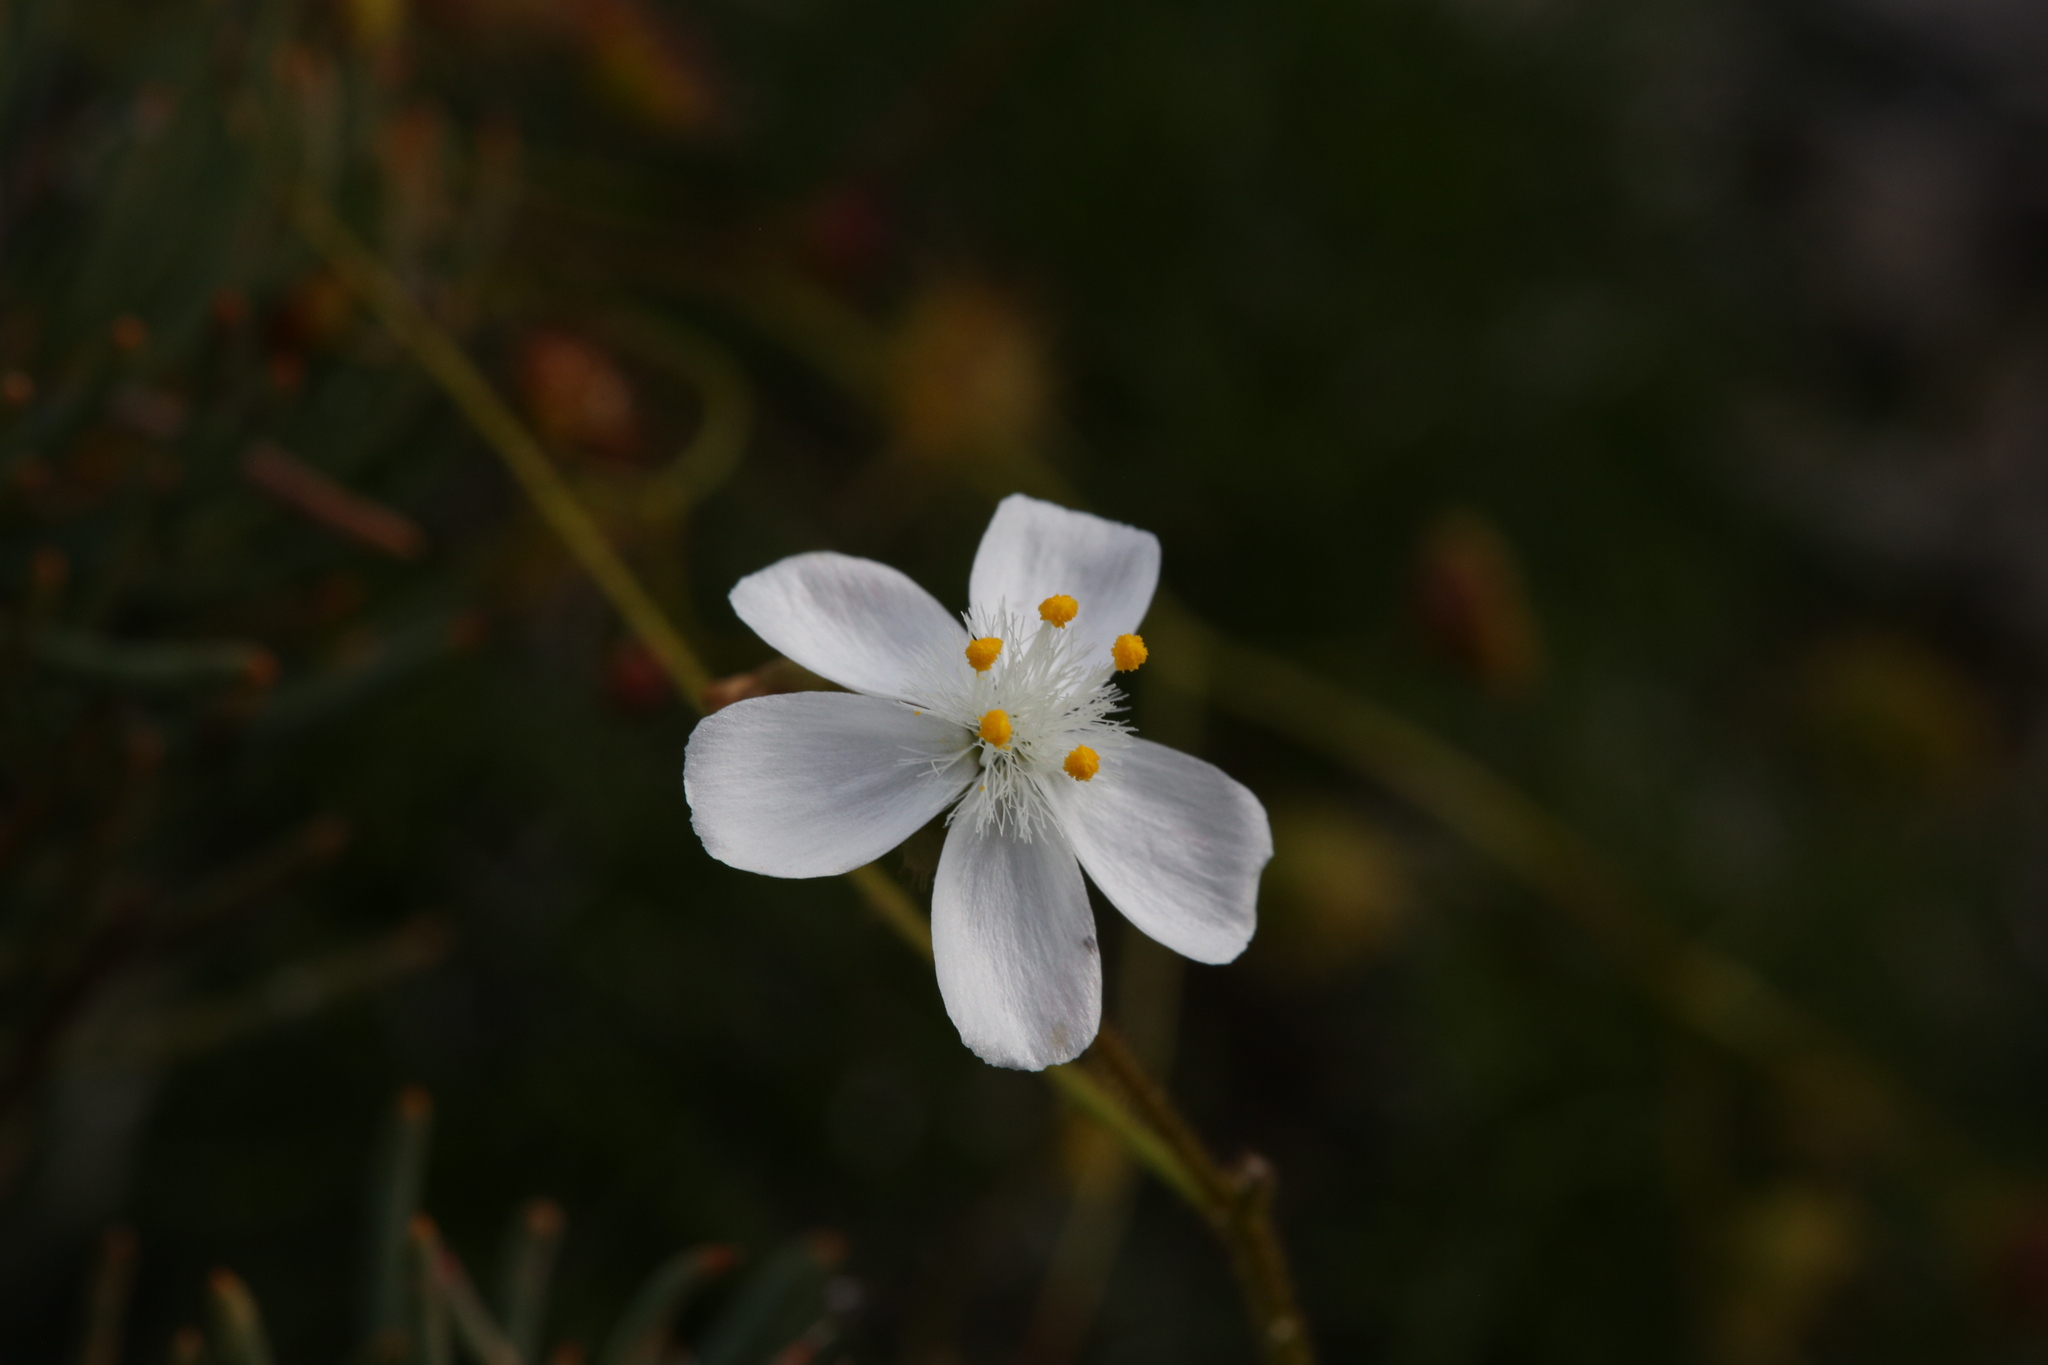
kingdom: Plantae
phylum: Tracheophyta
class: Magnoliopsida
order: Caryophyllales
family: Droseraceae
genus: Drosera
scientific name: Drosera macrantha
